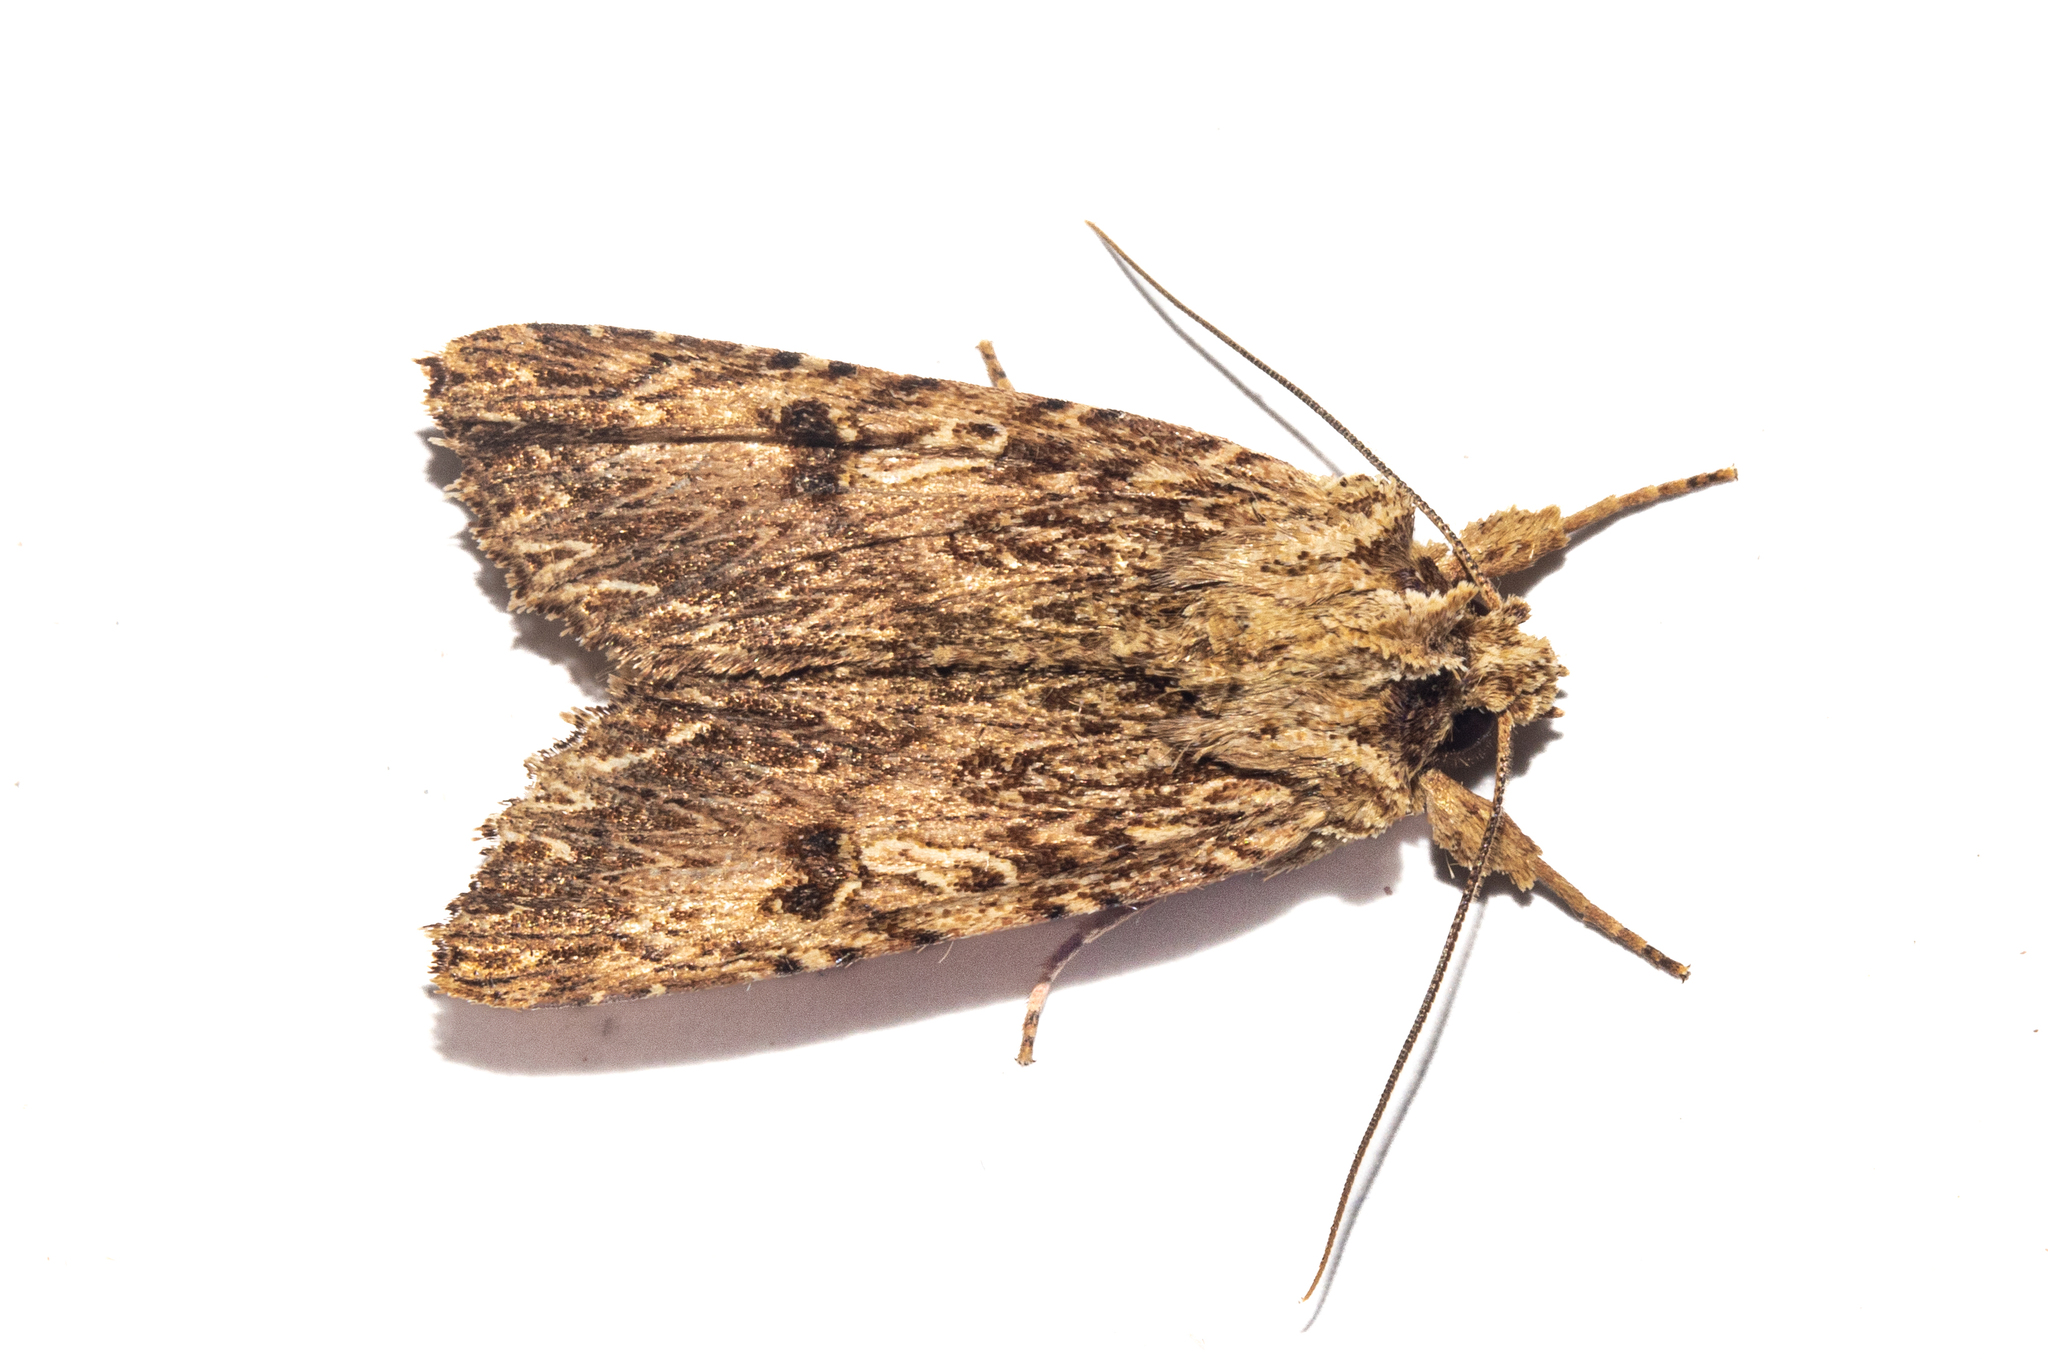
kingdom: Animalia
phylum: Arthropoda
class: Insecta
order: Lepidoptera
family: Noctuidae
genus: Meterana
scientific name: Meterana pansicolor
